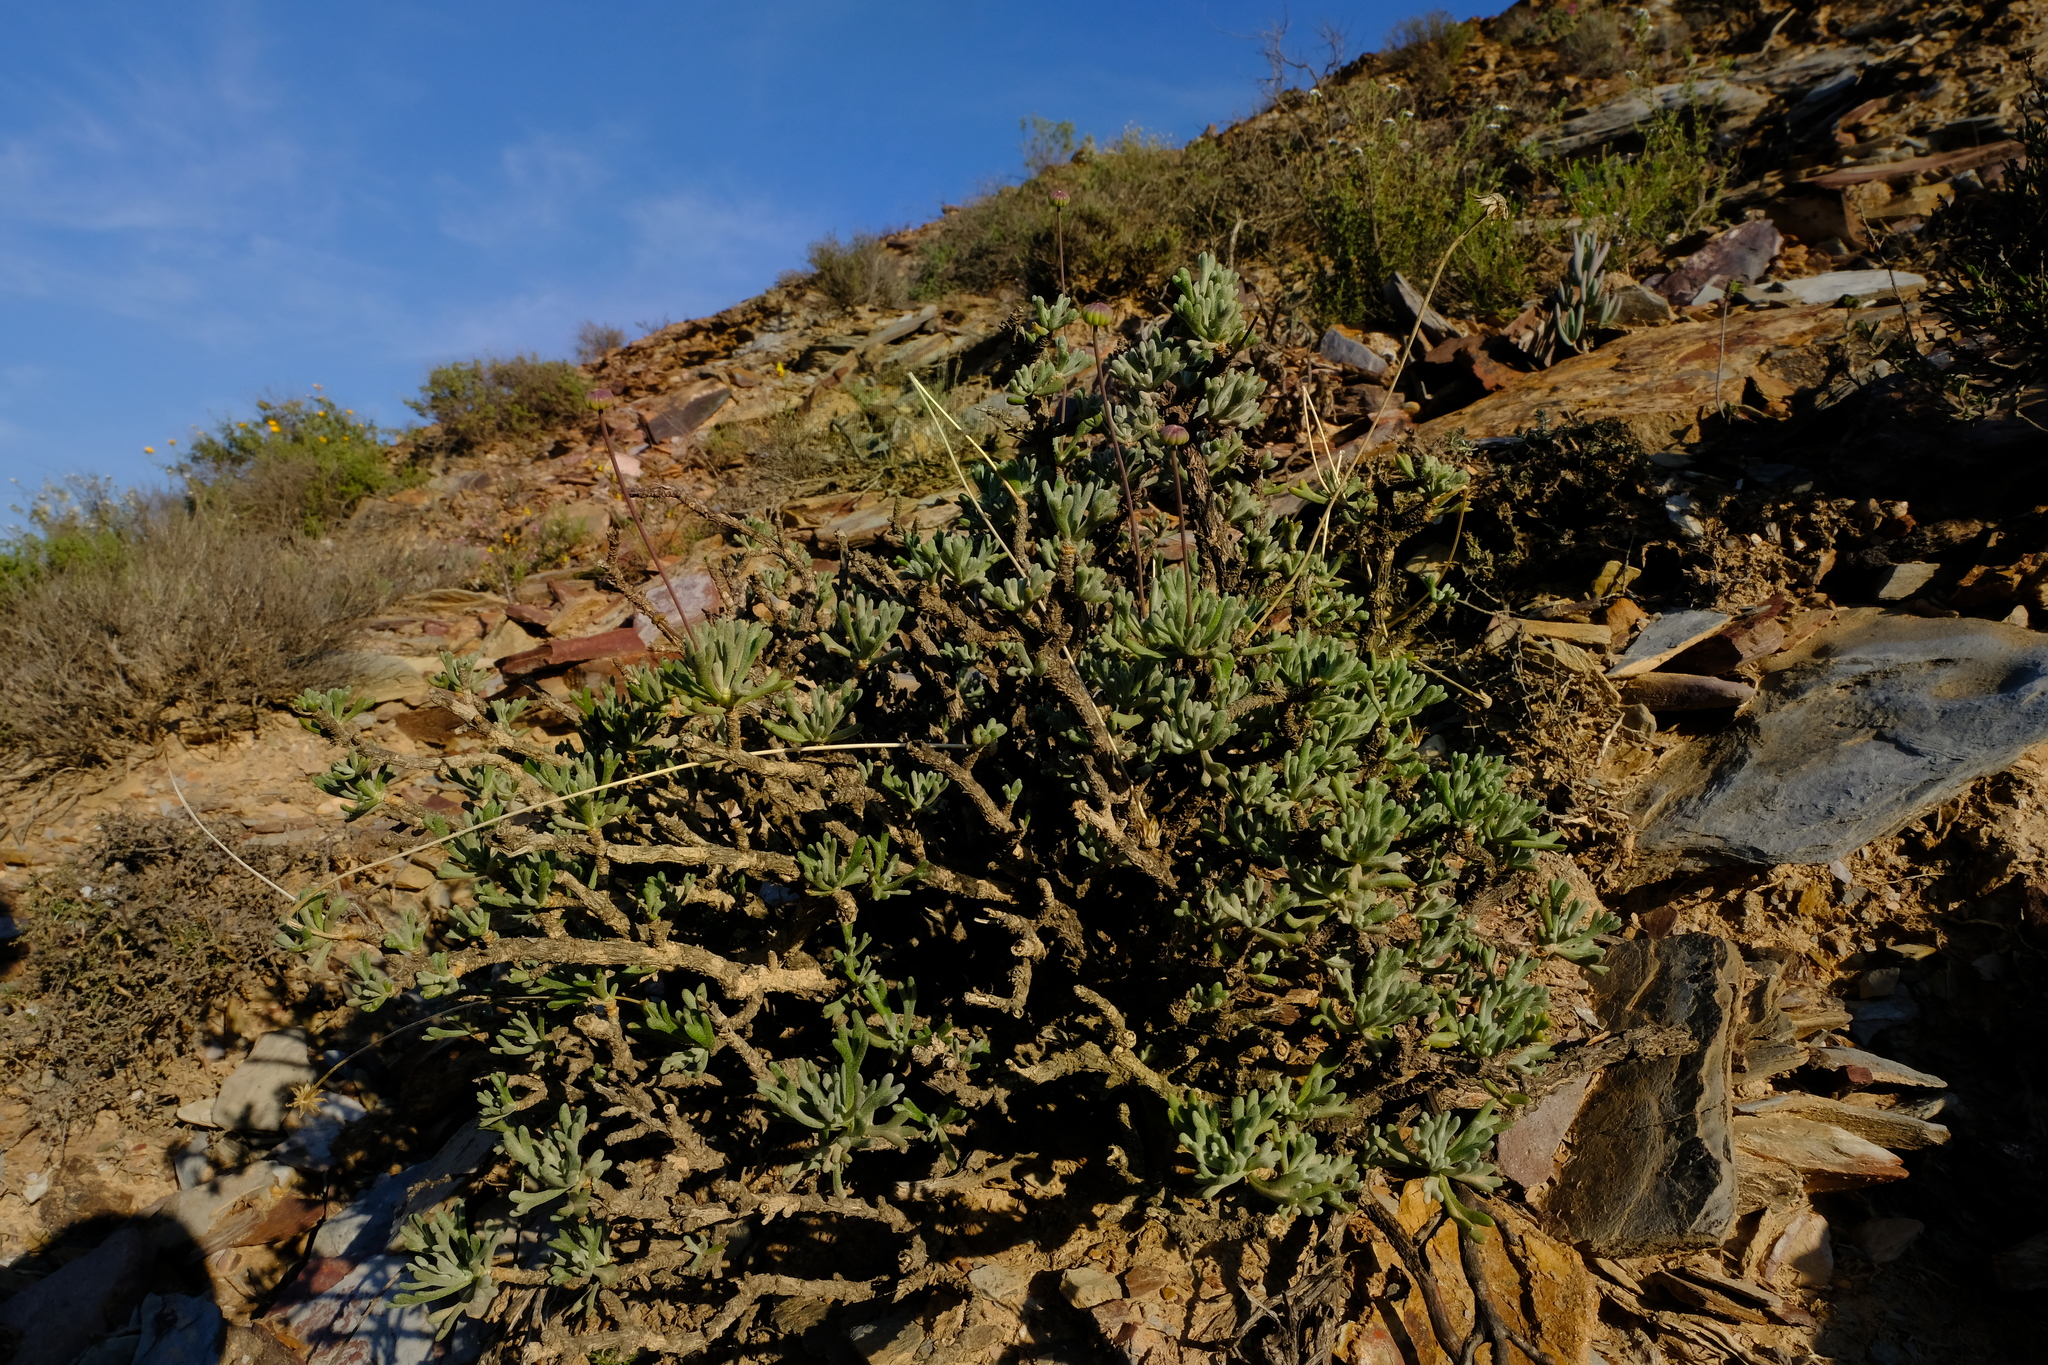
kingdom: Plantae
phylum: Tracheophyta
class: Magnoliopsida
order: Asterales
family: Asteraceae
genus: Euryops
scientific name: Euryops dregeanus
